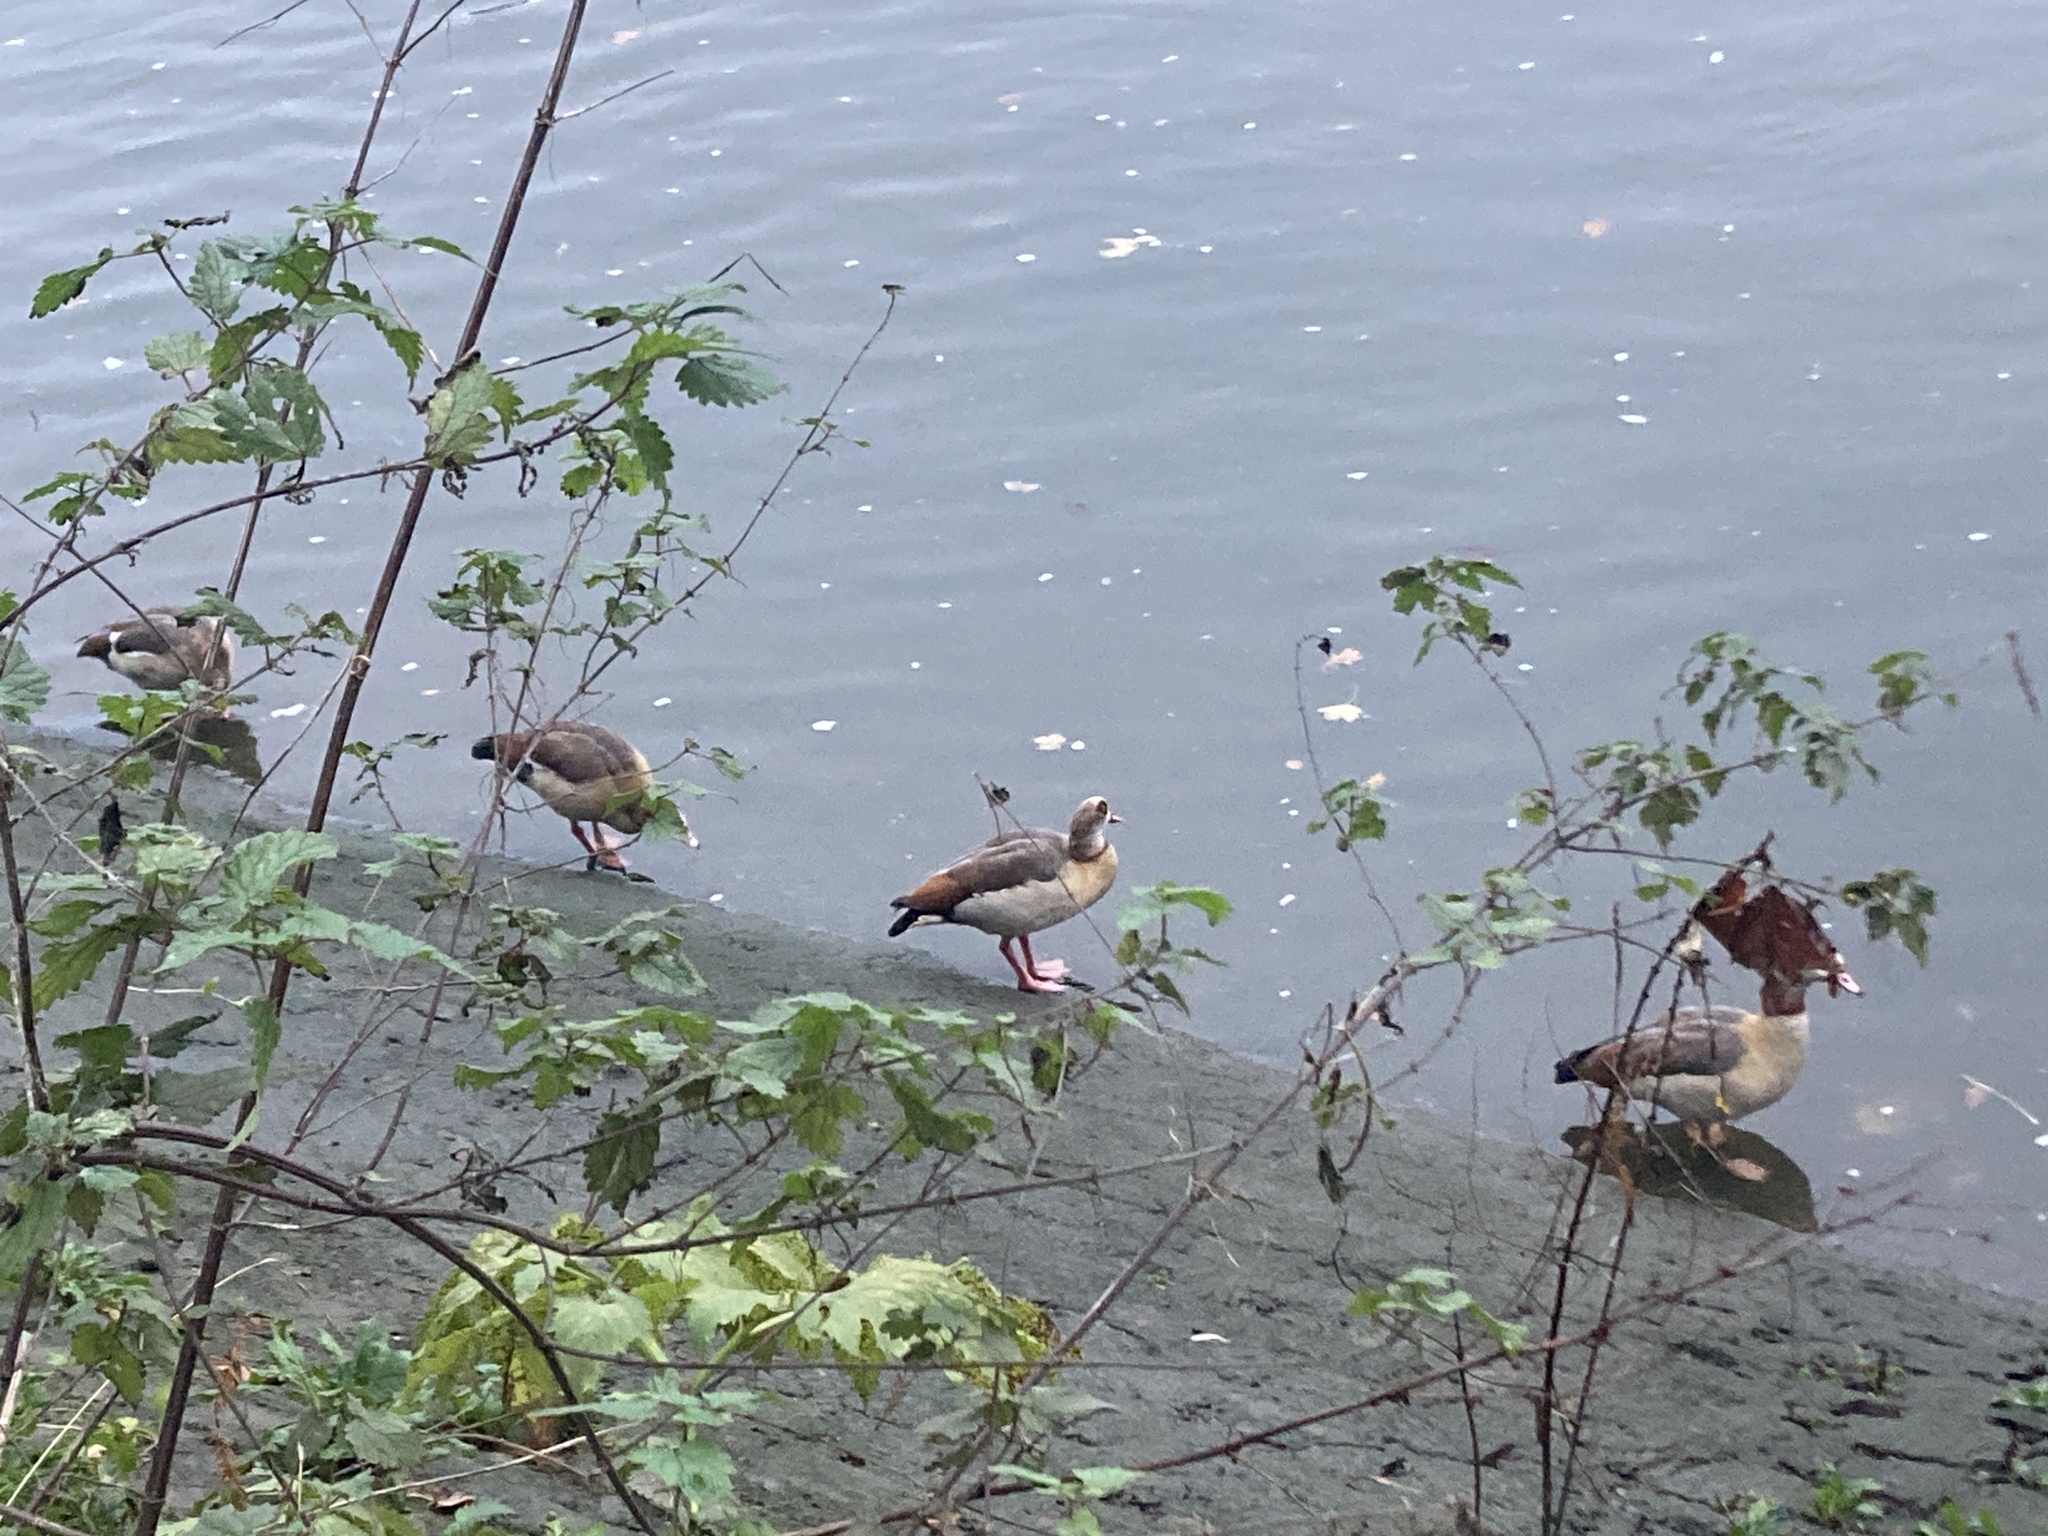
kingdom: Animalia
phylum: Chordata
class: Aves
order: Anseriformes
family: Anatidae
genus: Alopochen
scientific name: Alopochen aegyptiaca
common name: Egyptian goose
